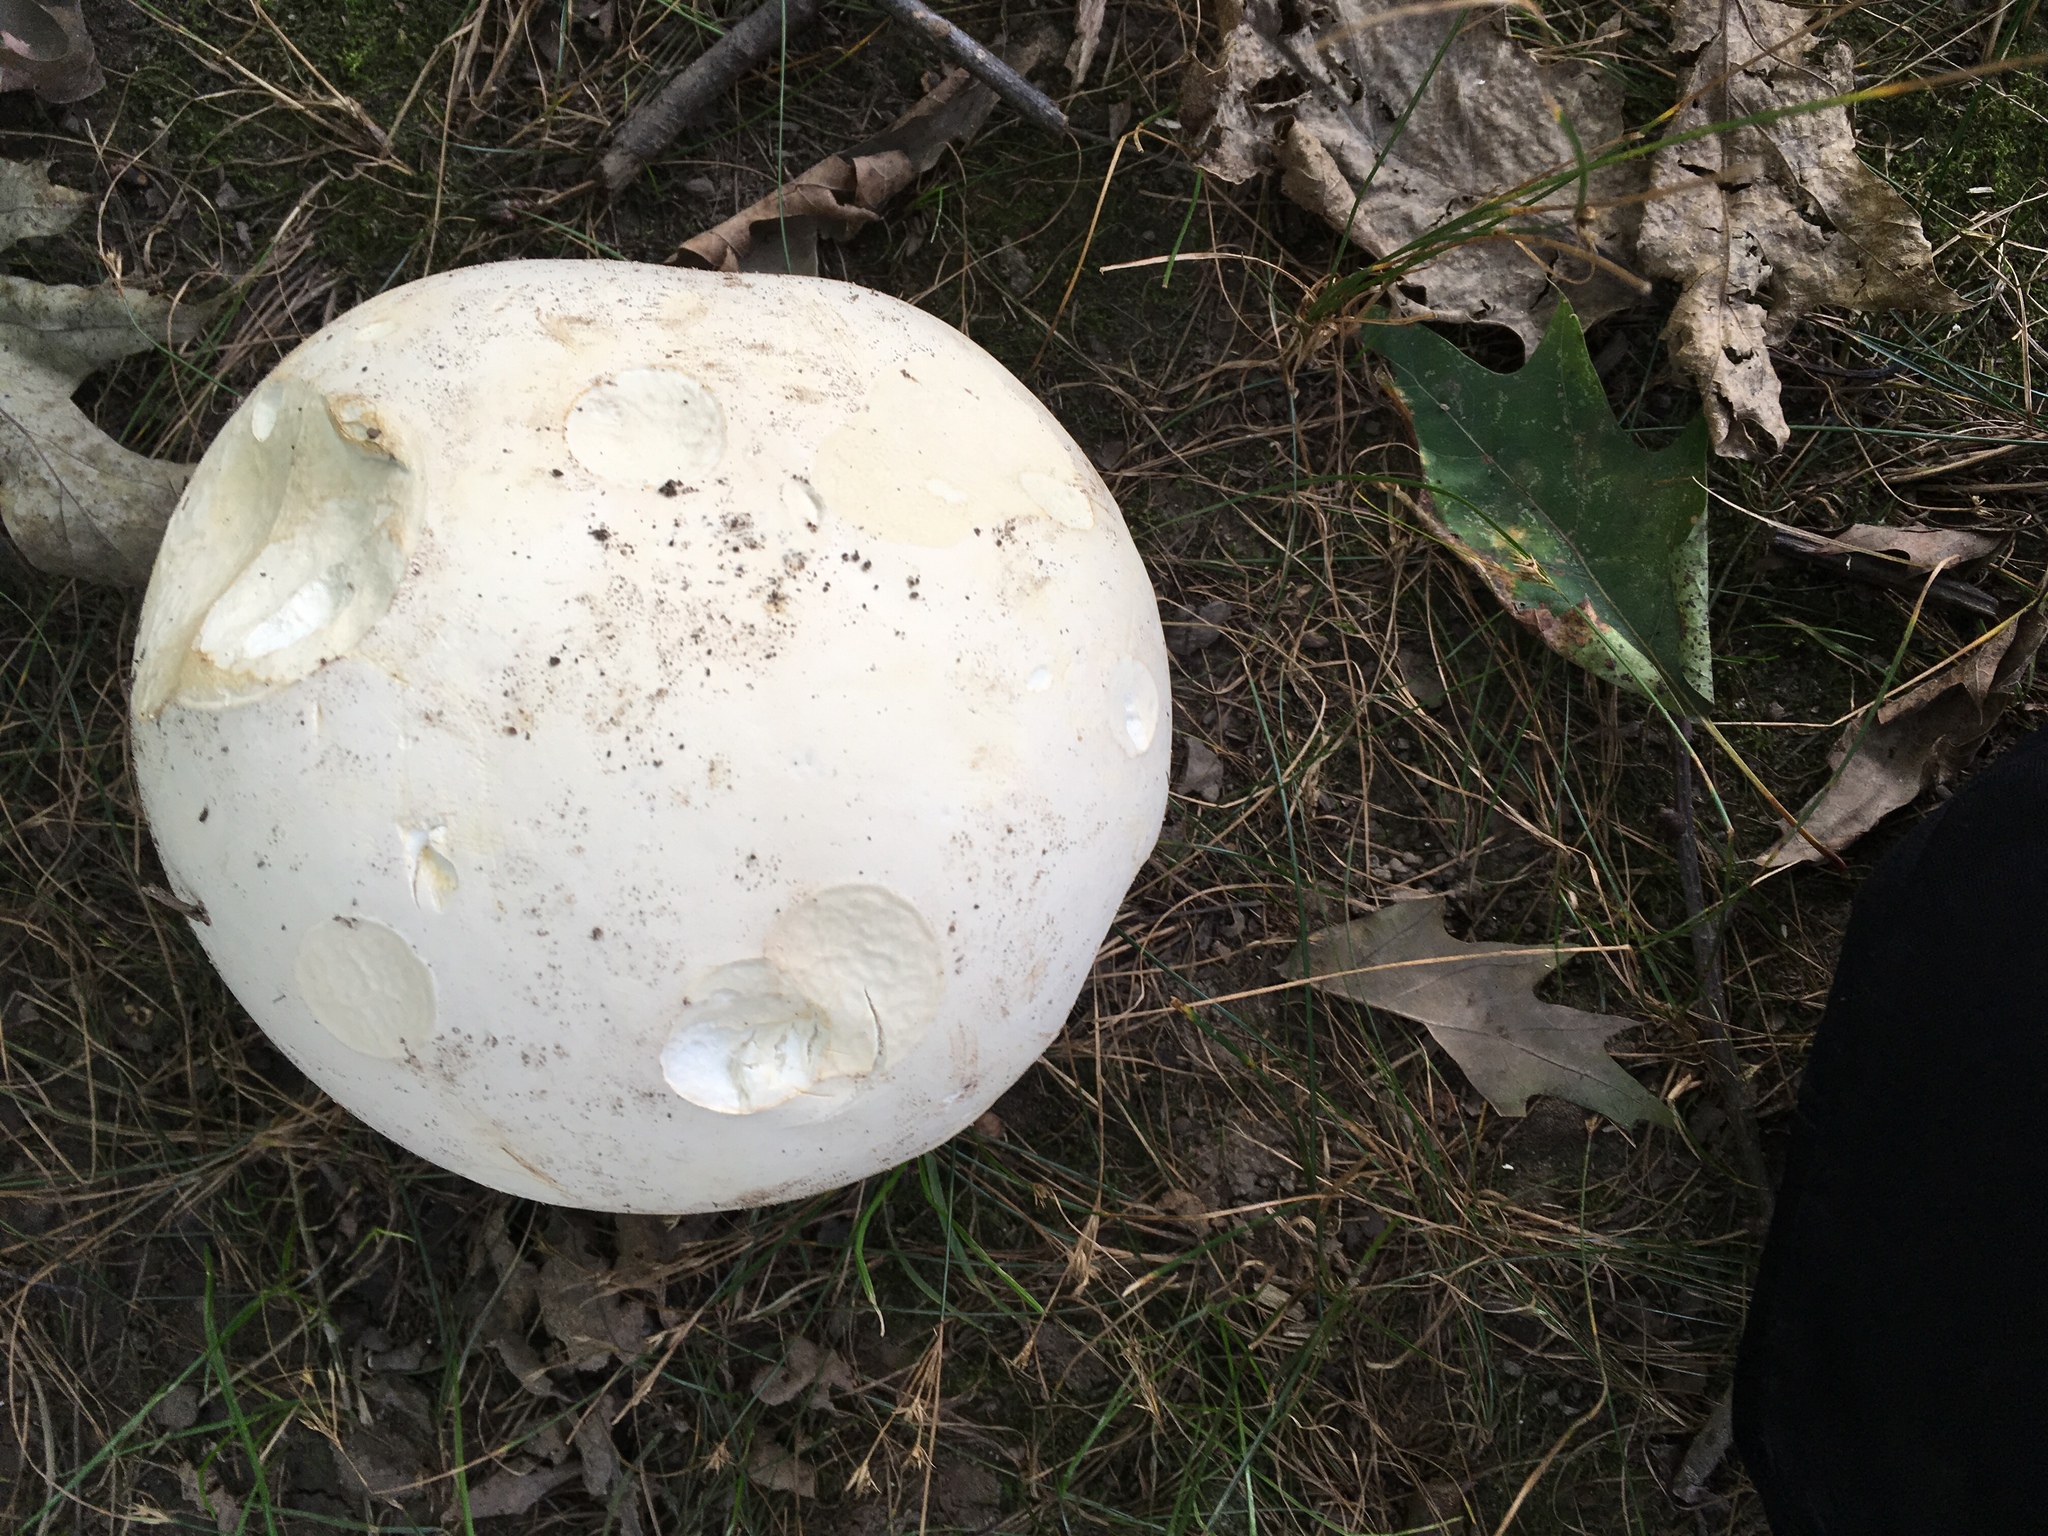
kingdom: Fungi
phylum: Basidiomycota
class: Agaricomycetes
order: Agaricales
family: Lycoperdaceae
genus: Calvatia
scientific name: Calvatia gigantea
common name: Giant puffball
